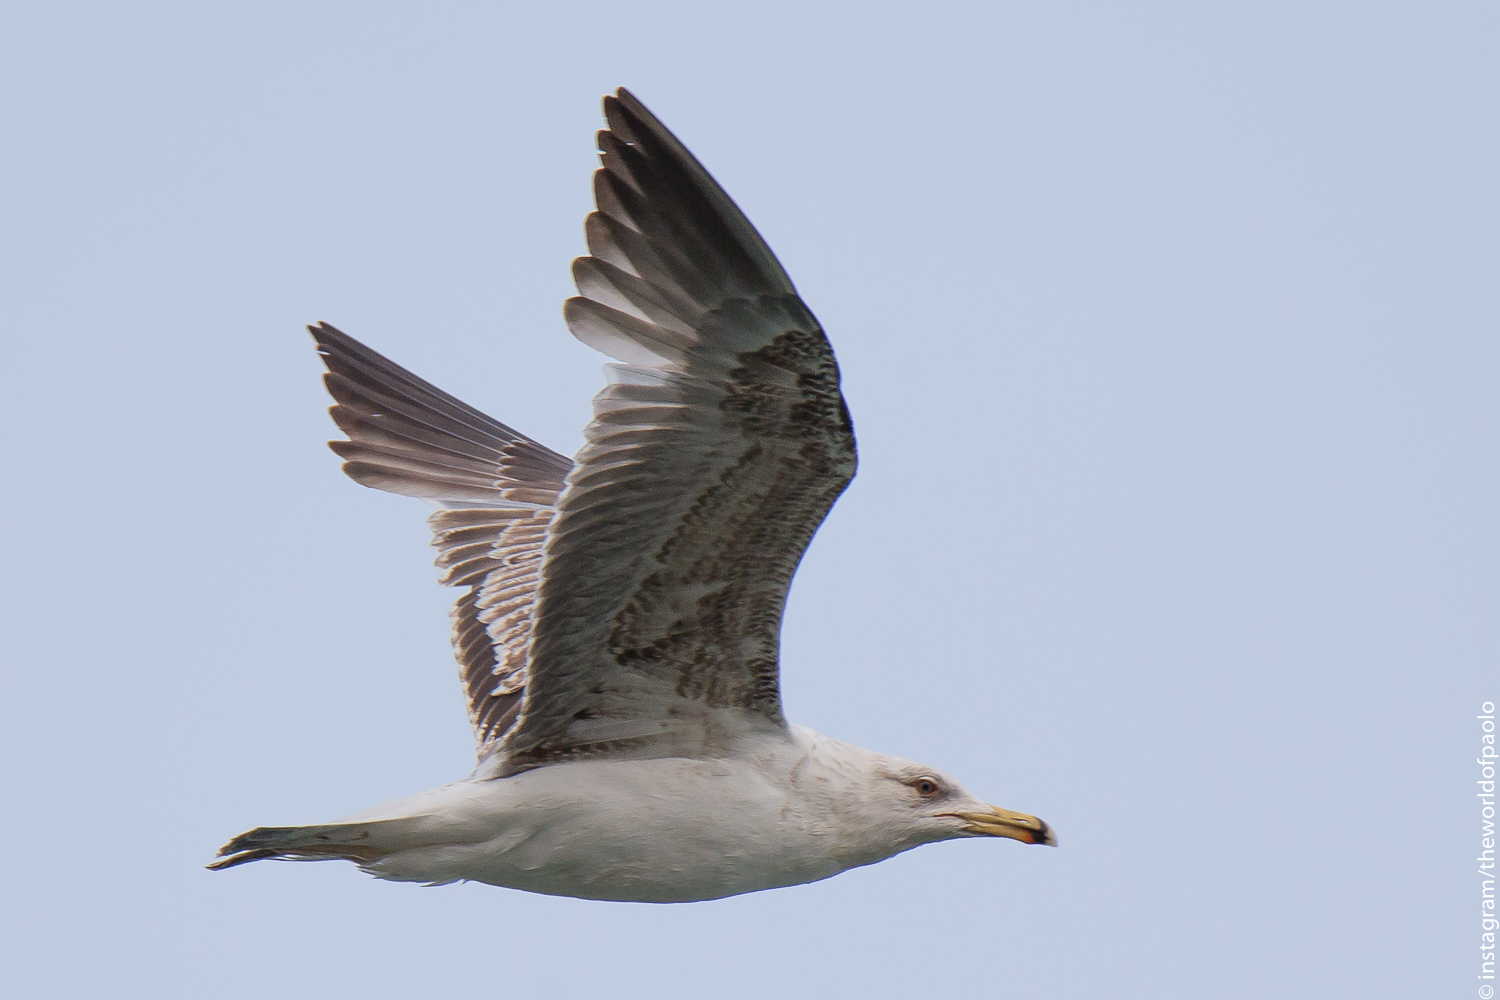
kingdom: Animalia
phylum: Chordata
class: Aves
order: Charadriiformes
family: Laridae
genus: Larus
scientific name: Larus michahellis
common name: Yellow-legged gull
